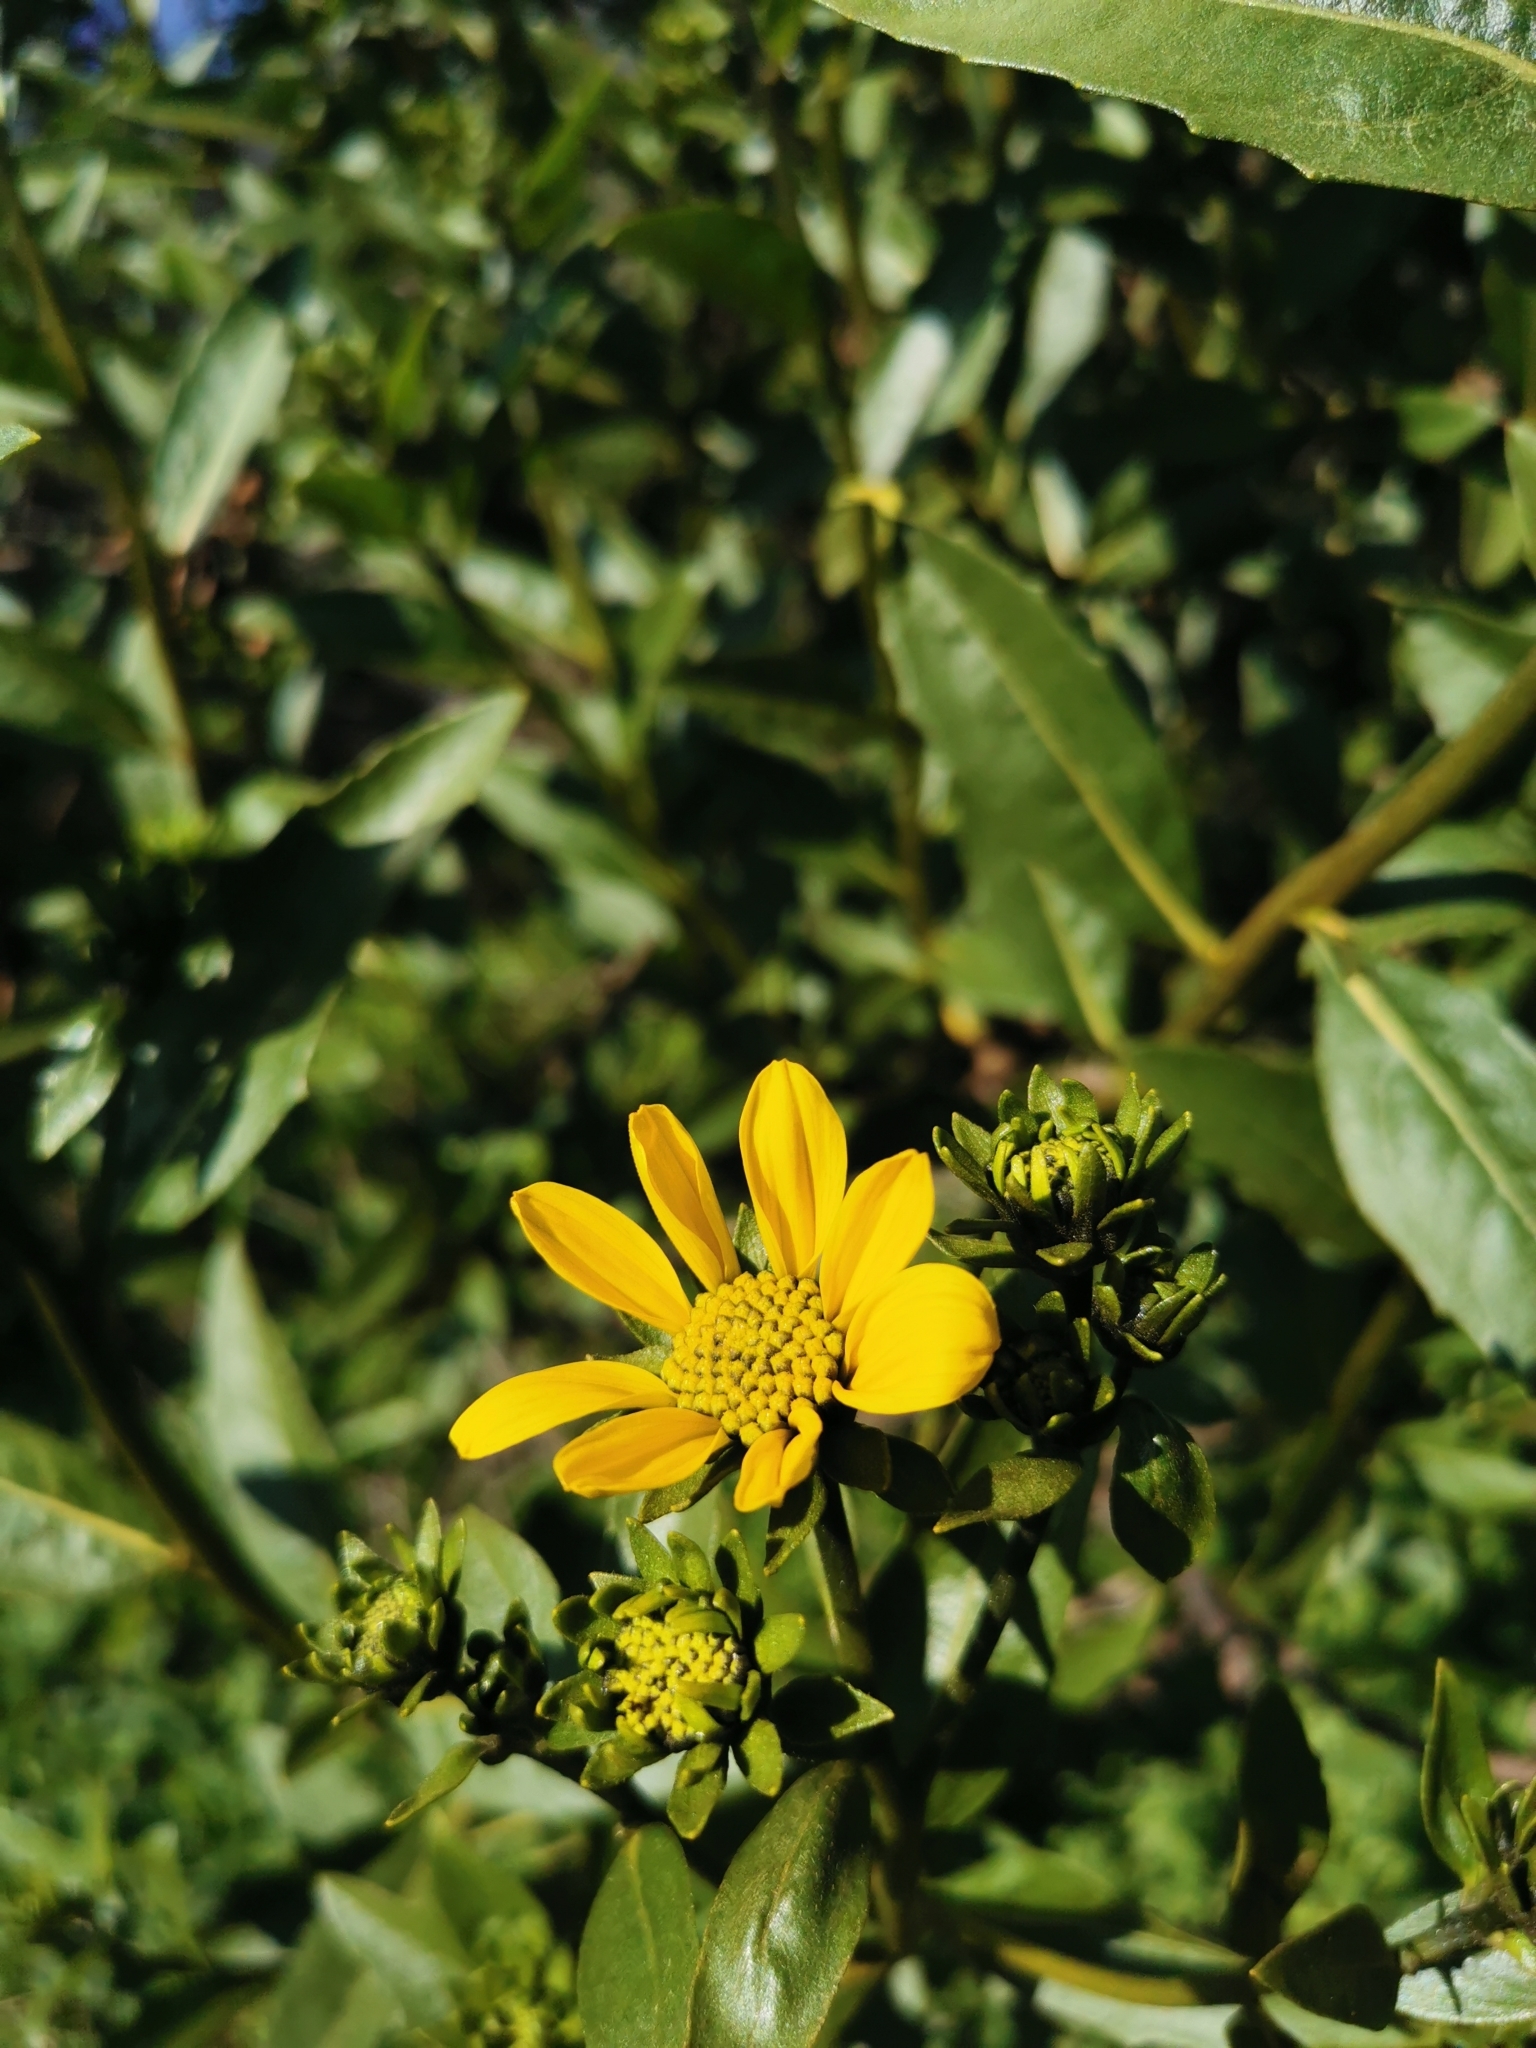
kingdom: Plantae
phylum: Tracheophyta
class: Magnoliopsida
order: Asterales
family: Asteraceae
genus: Flourensia
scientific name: Flourensia thurifera
